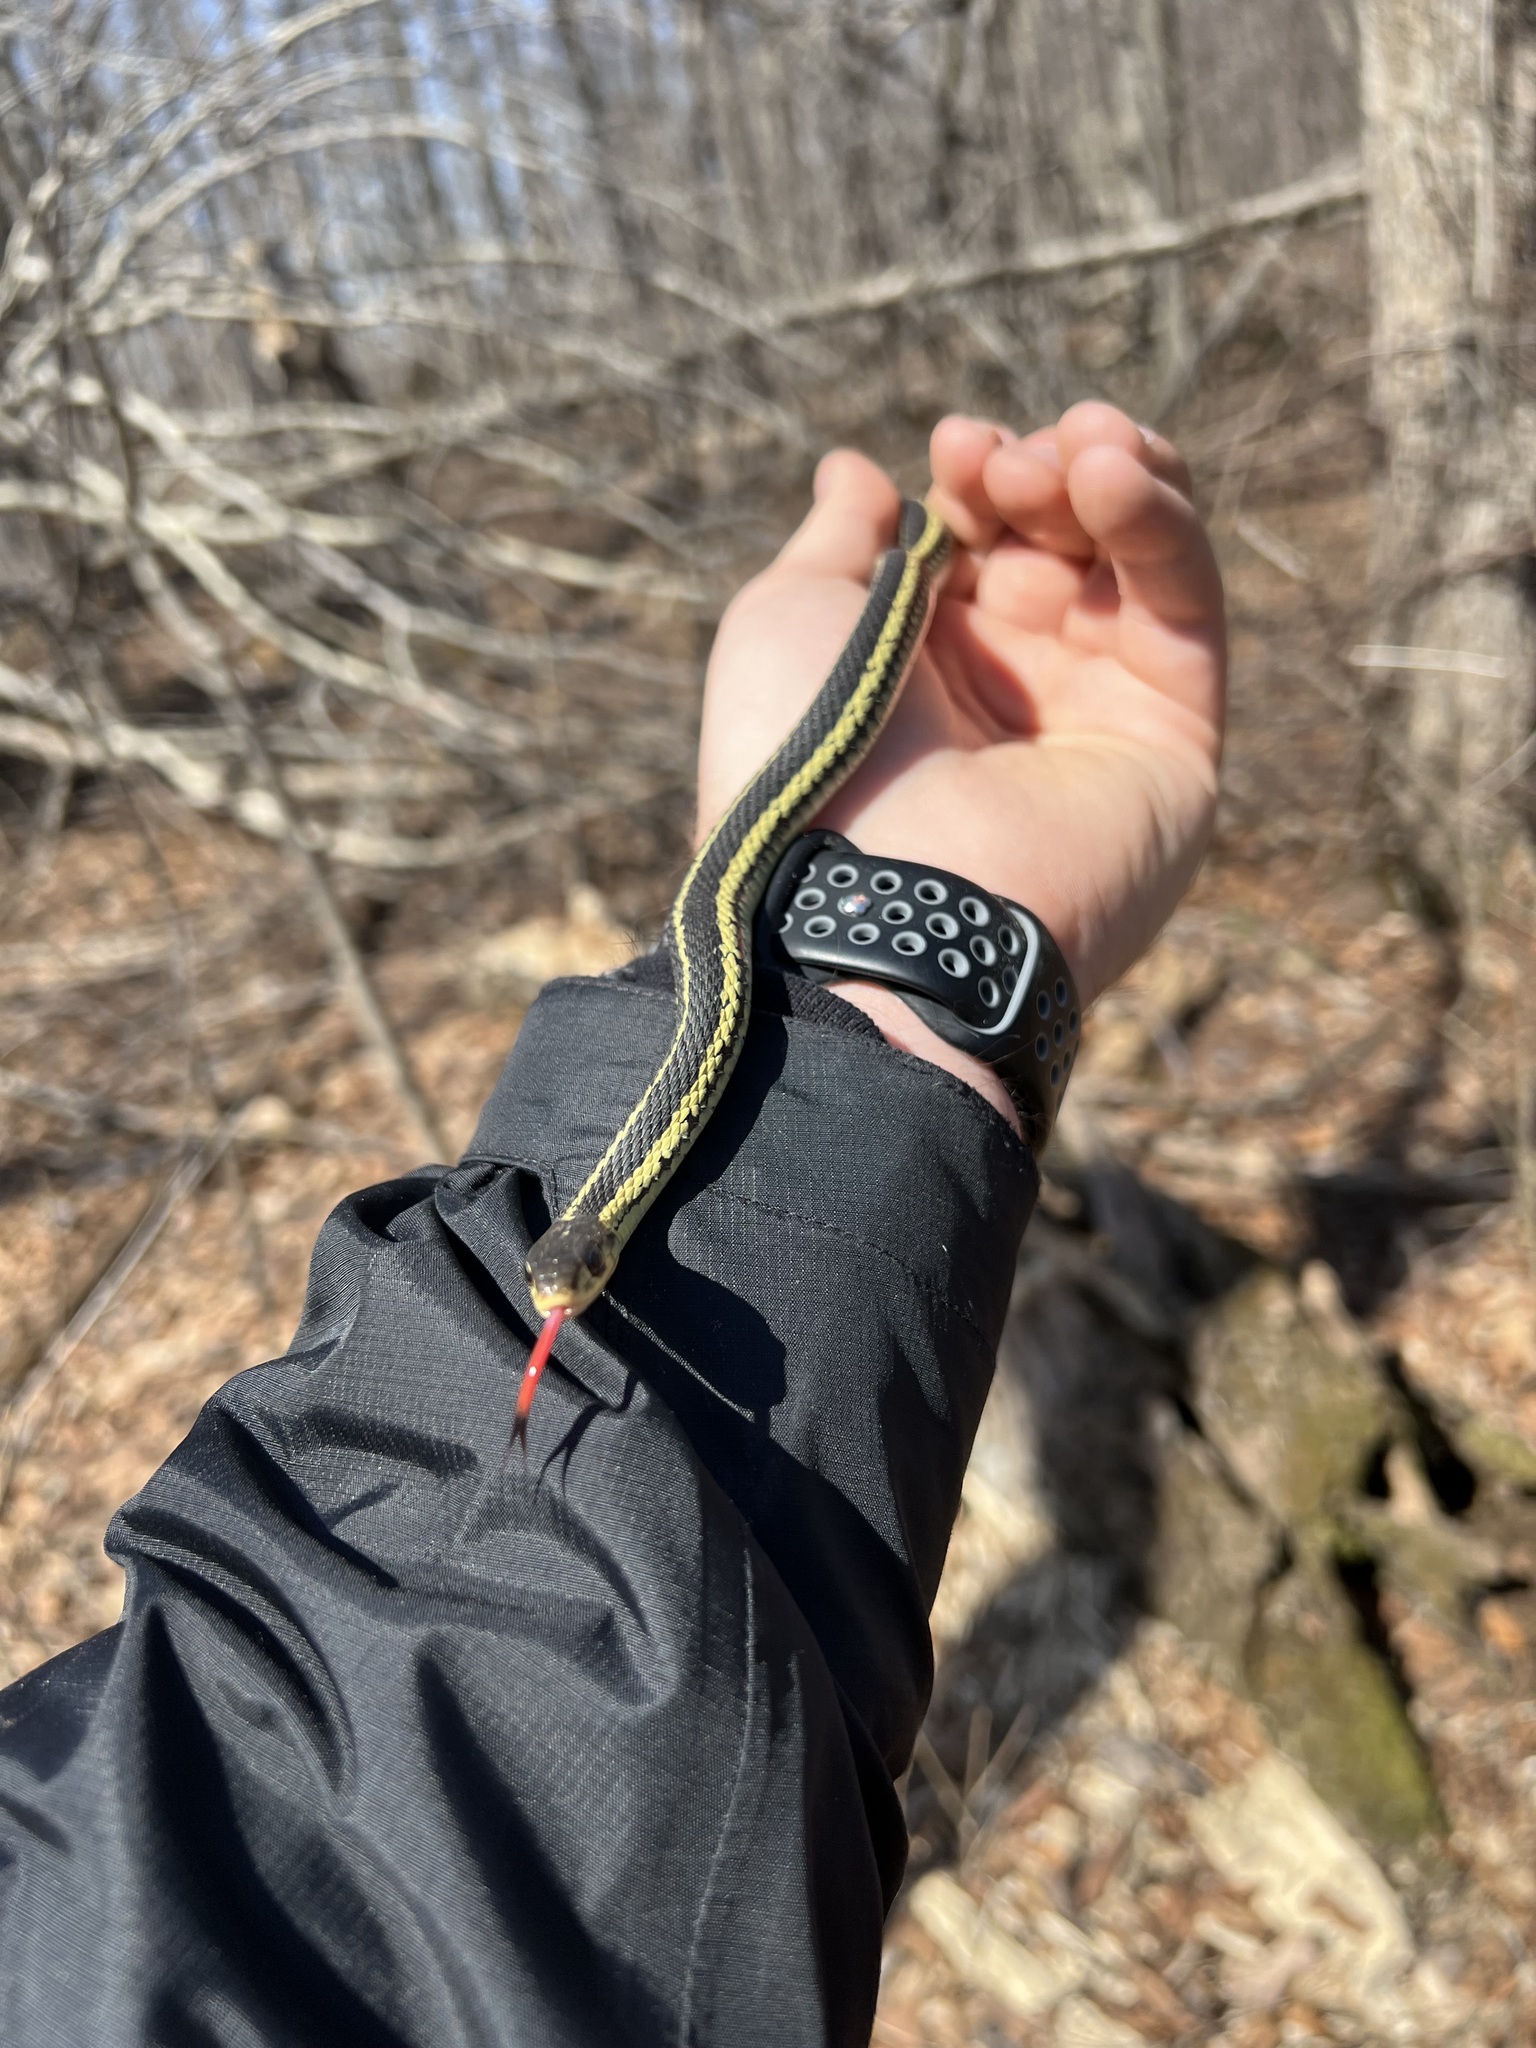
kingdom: Animalia
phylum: Chordata
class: Squamata
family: Colubridae
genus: Thamnophis
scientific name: Thamnophis sirtalis
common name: Common garter snake
